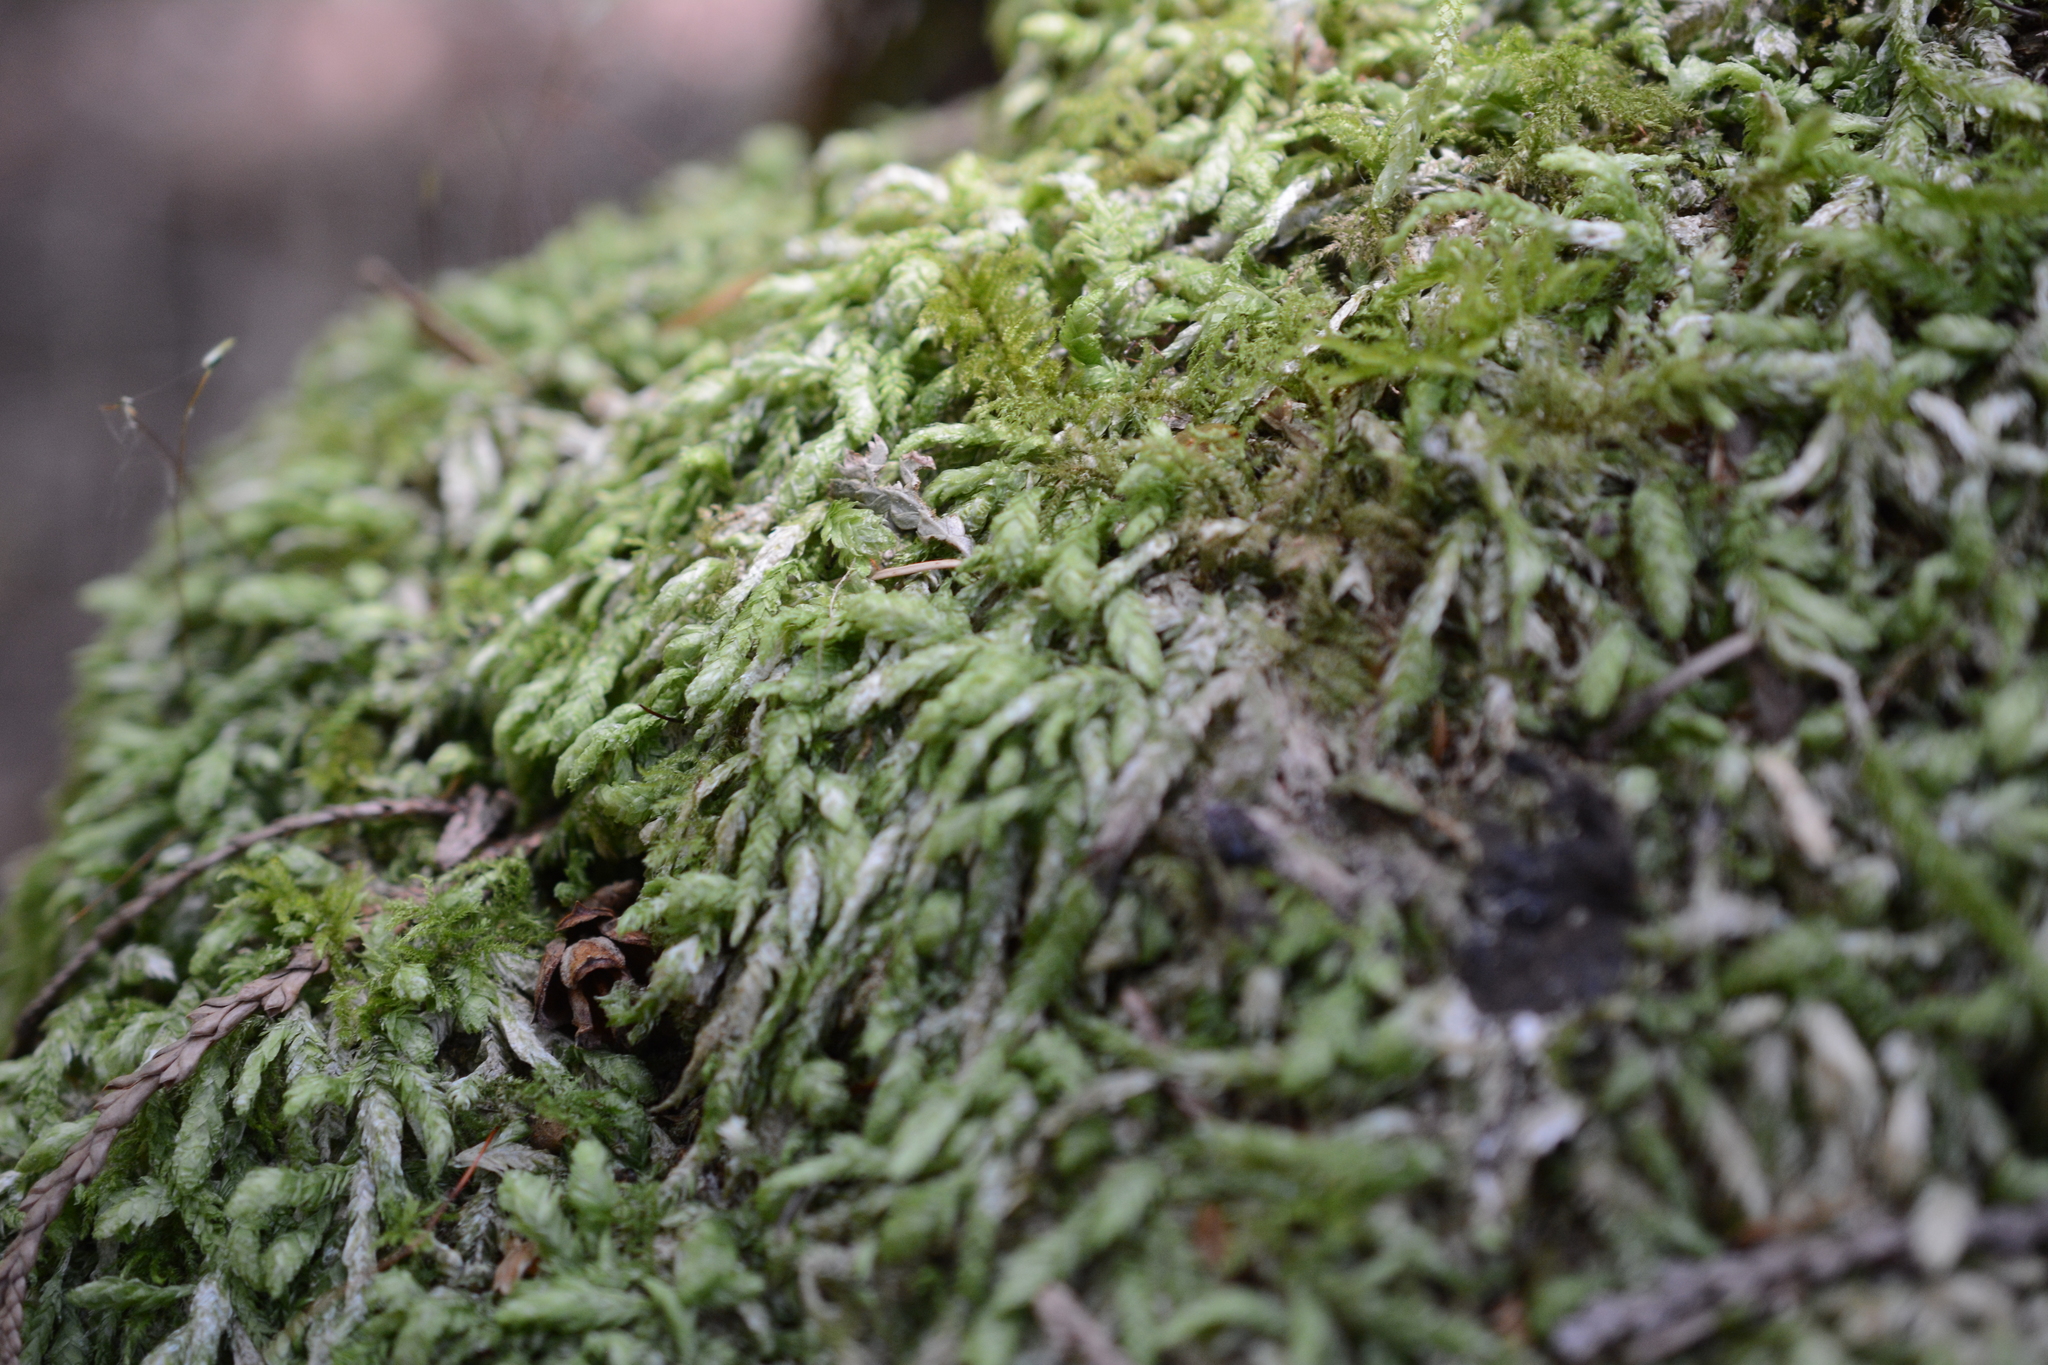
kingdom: Plantae
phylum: Bryophyta
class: Bryopsida
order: Hypnales
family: Plagiotheciaceae
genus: Plagiothecium
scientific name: Plagiothecium undulatum
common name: Waved silk-moss
